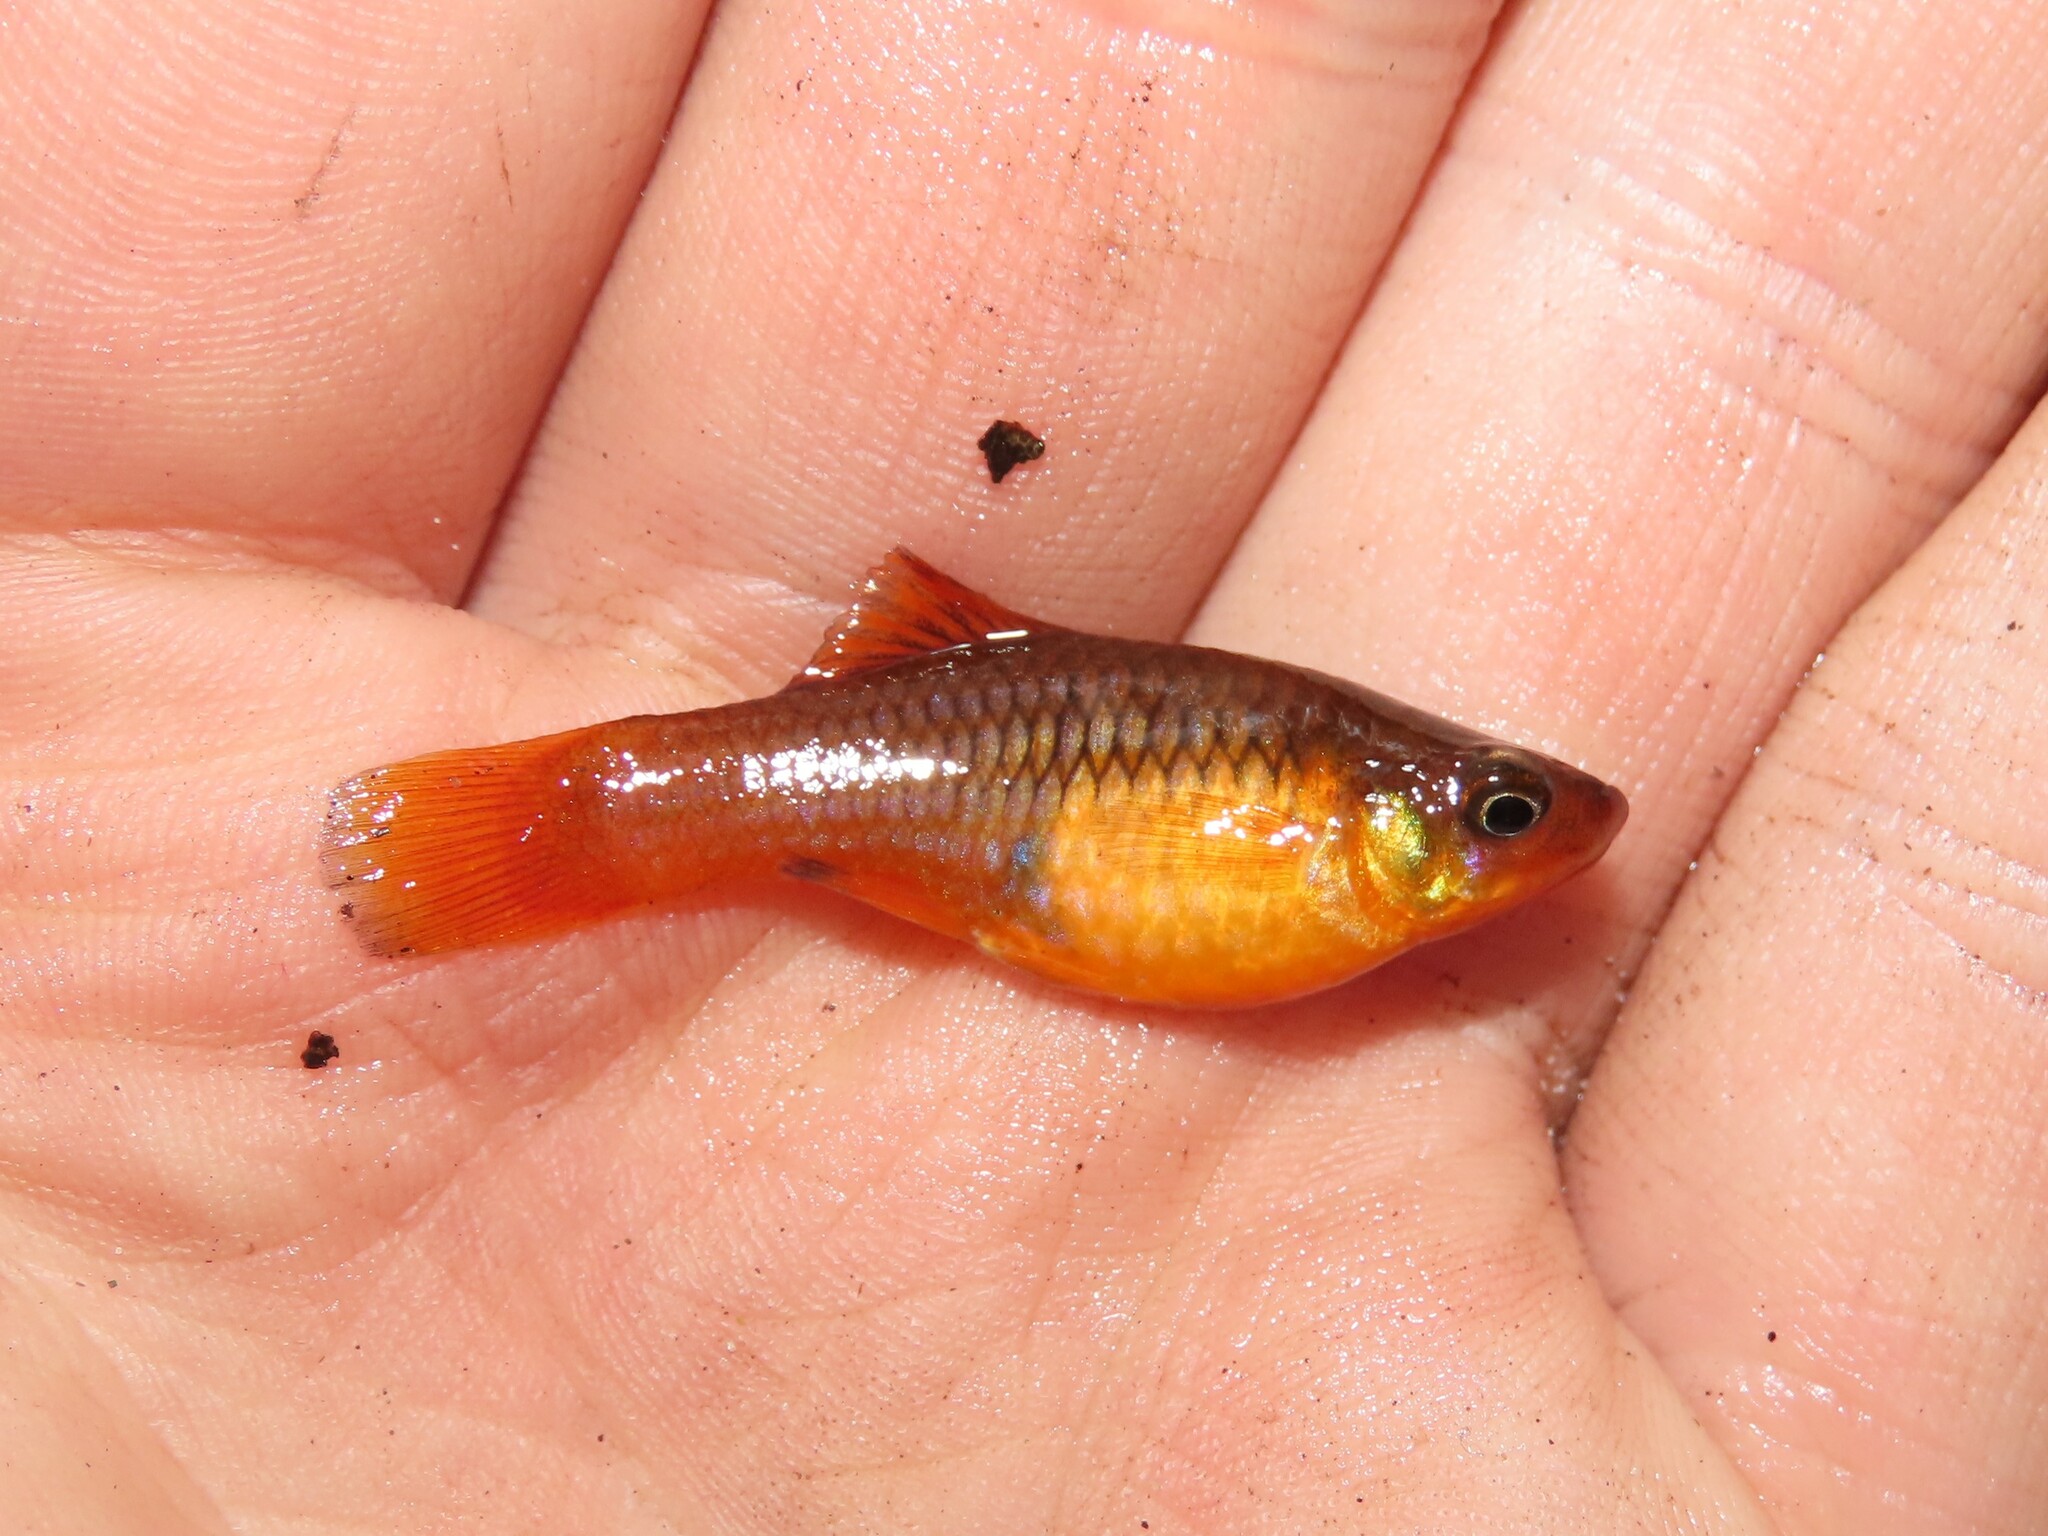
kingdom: Animalia
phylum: Chordata
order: Cyprinodontiformes
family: Poeciliidae
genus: Xiphophorus
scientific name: Xiphophorus variatus
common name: Variable platyfish
